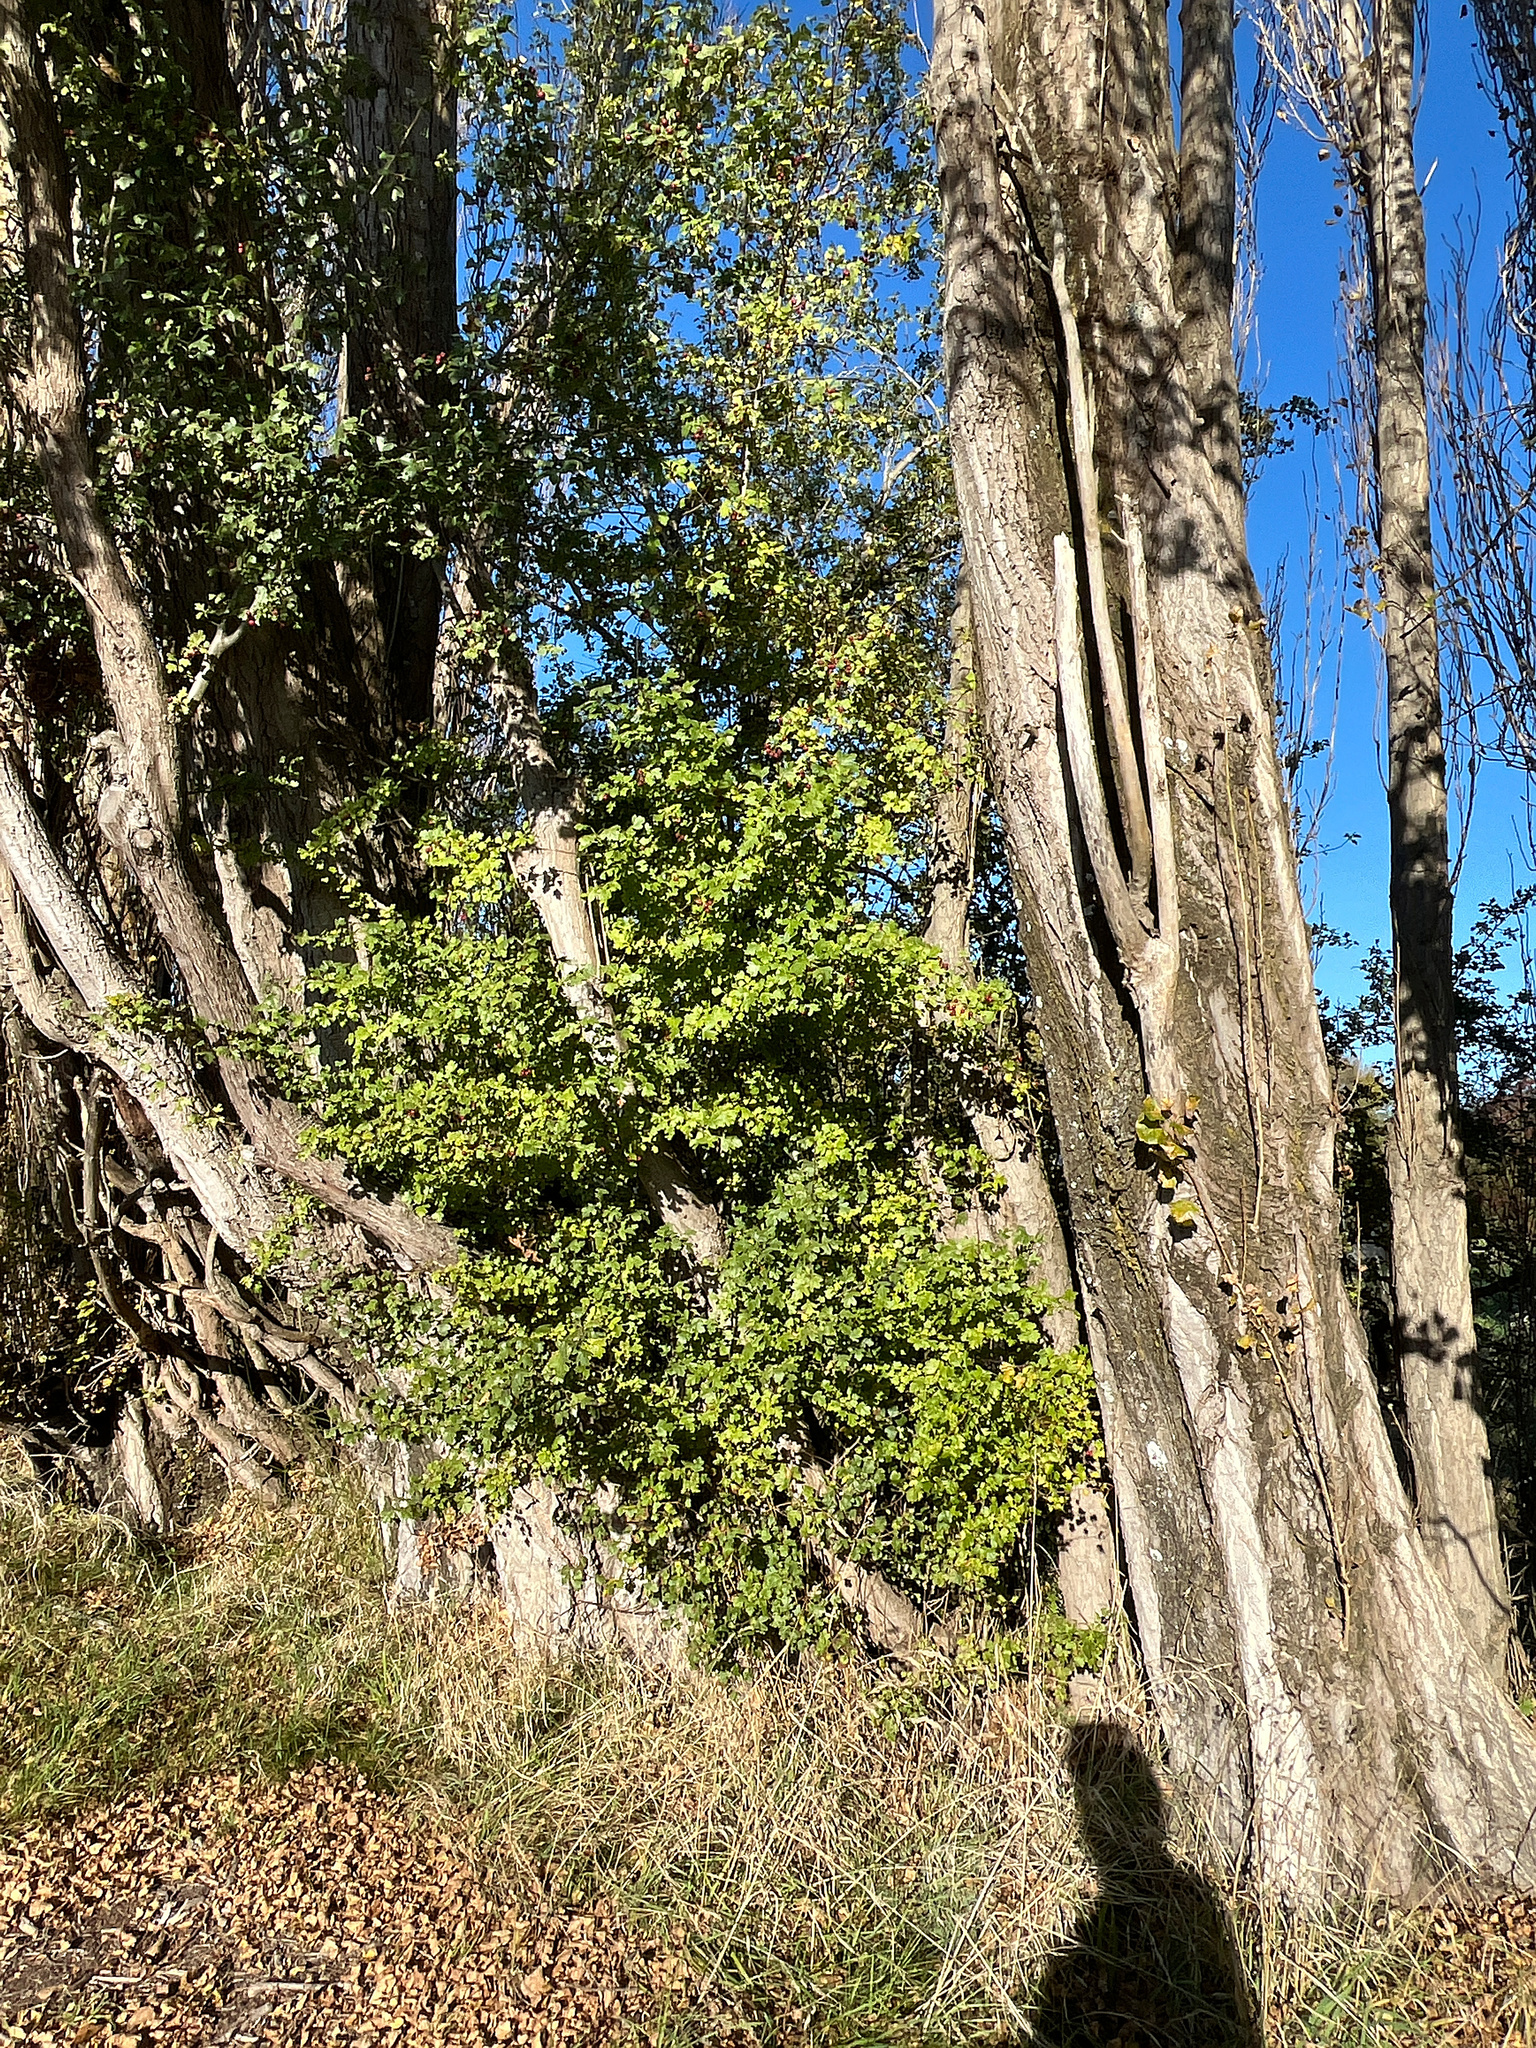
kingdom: Plantae
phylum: Tracheophyta
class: Magnoliopsida
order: Rosales
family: Rosaceae
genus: Crataegus
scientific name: Crataegus monogyna
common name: Hawthorn
